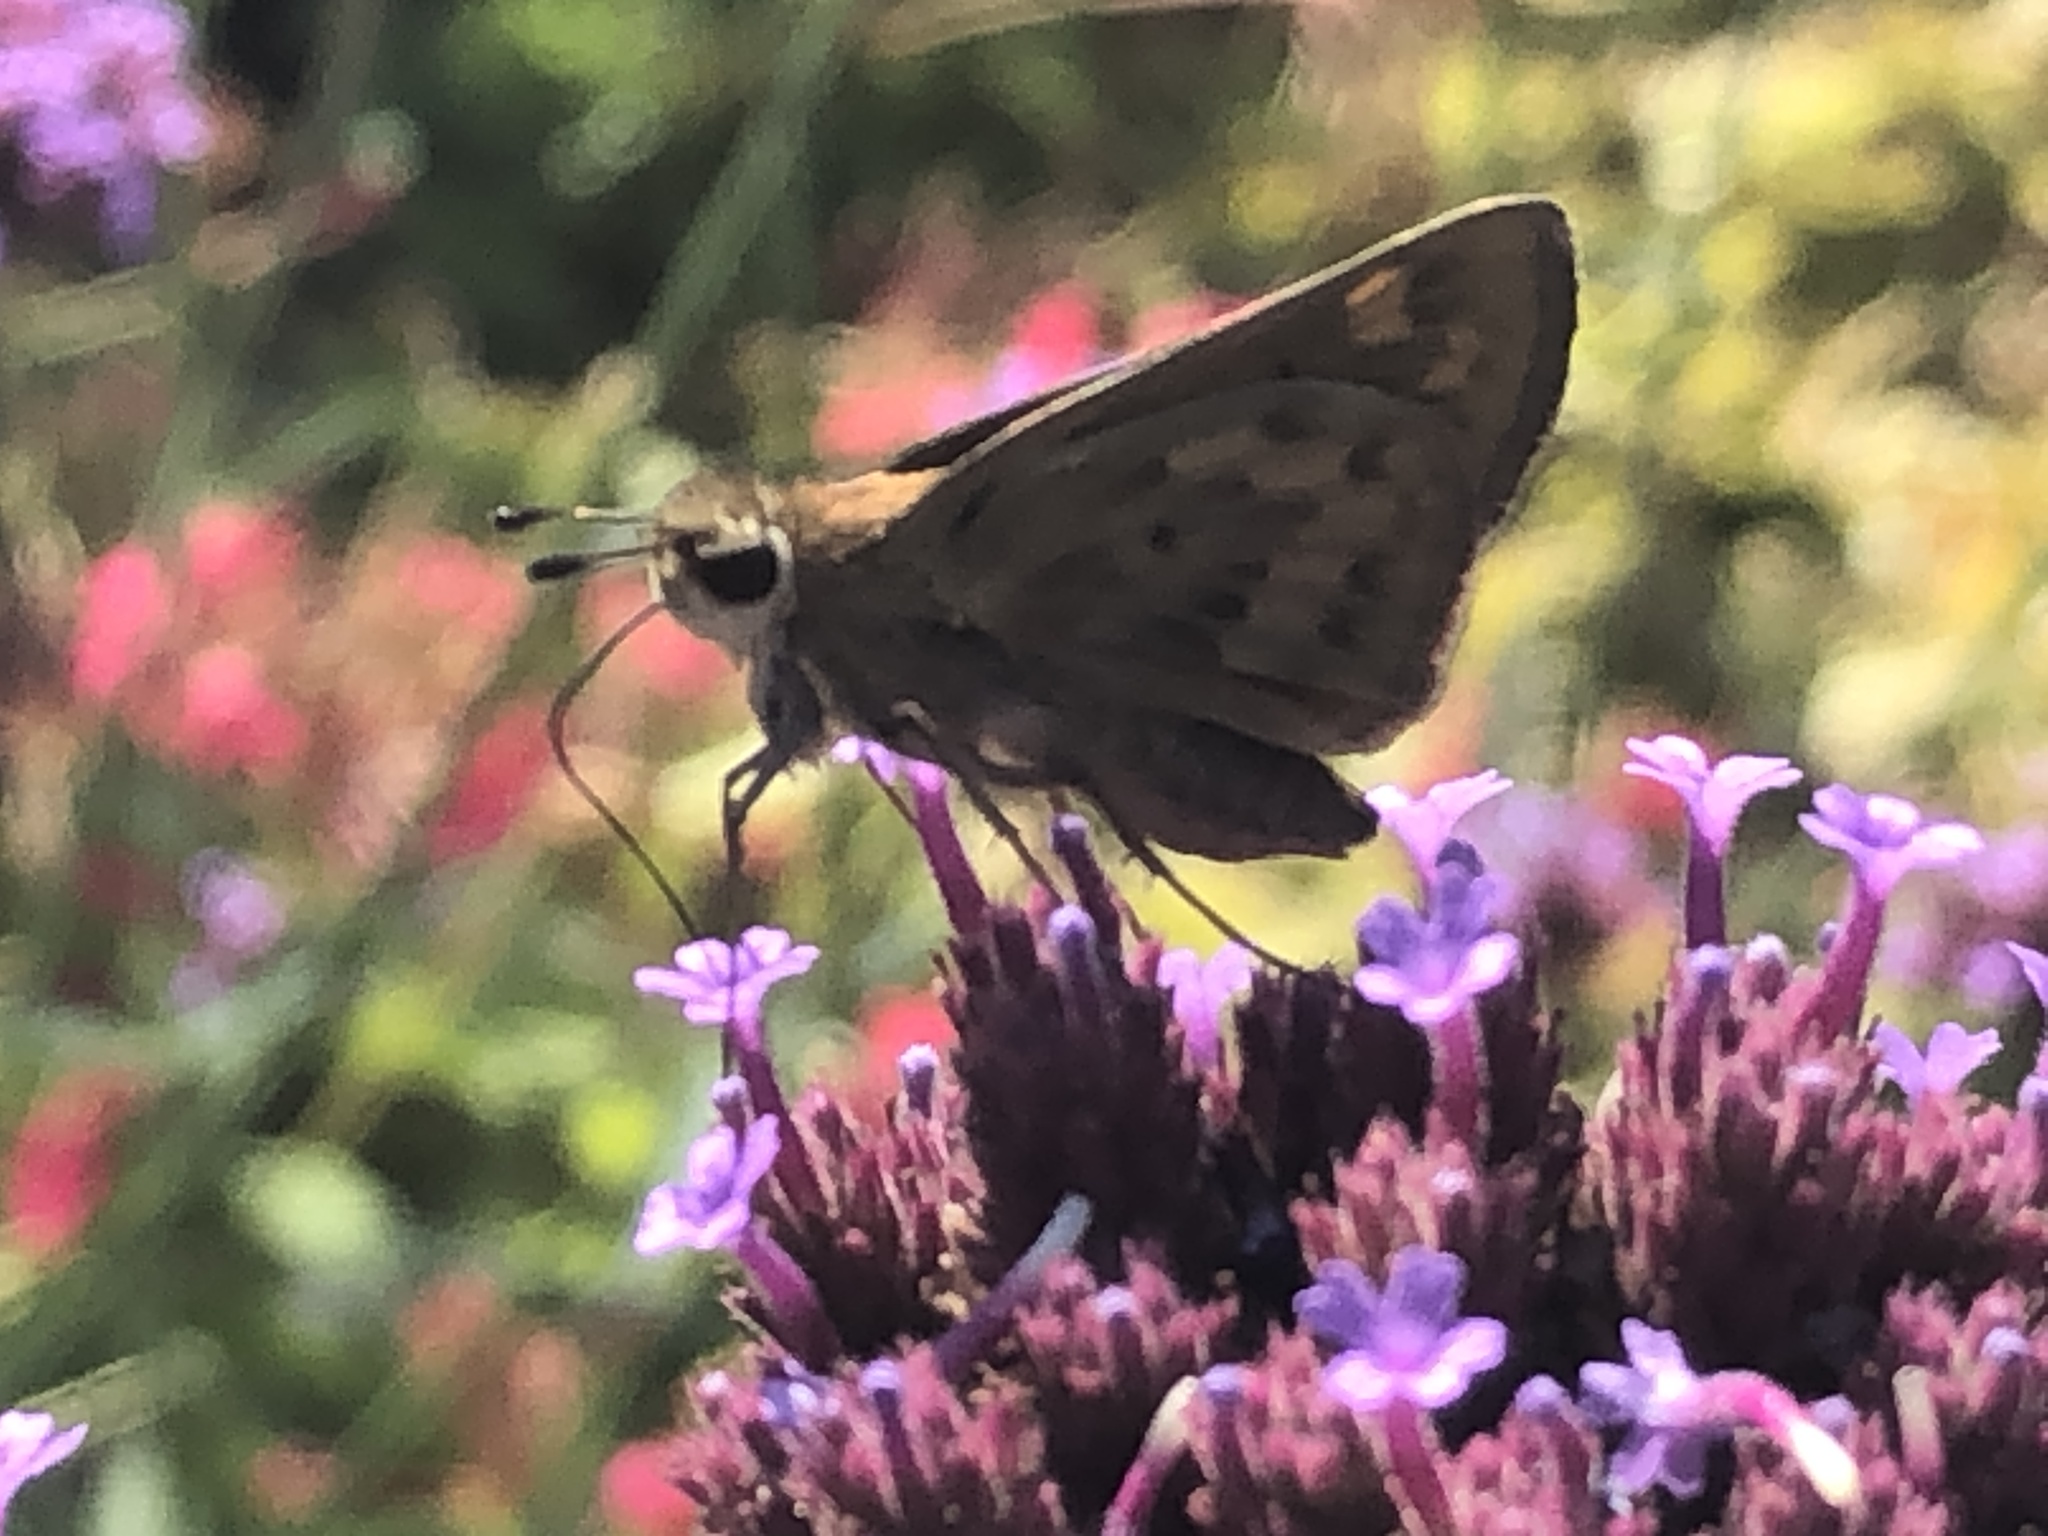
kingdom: Animalia
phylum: Arthropoda
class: Insecta
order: Lepidoptera
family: Hesperiidae
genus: Hylephila
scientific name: Hylephila phyleus
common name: Fiery skipper
